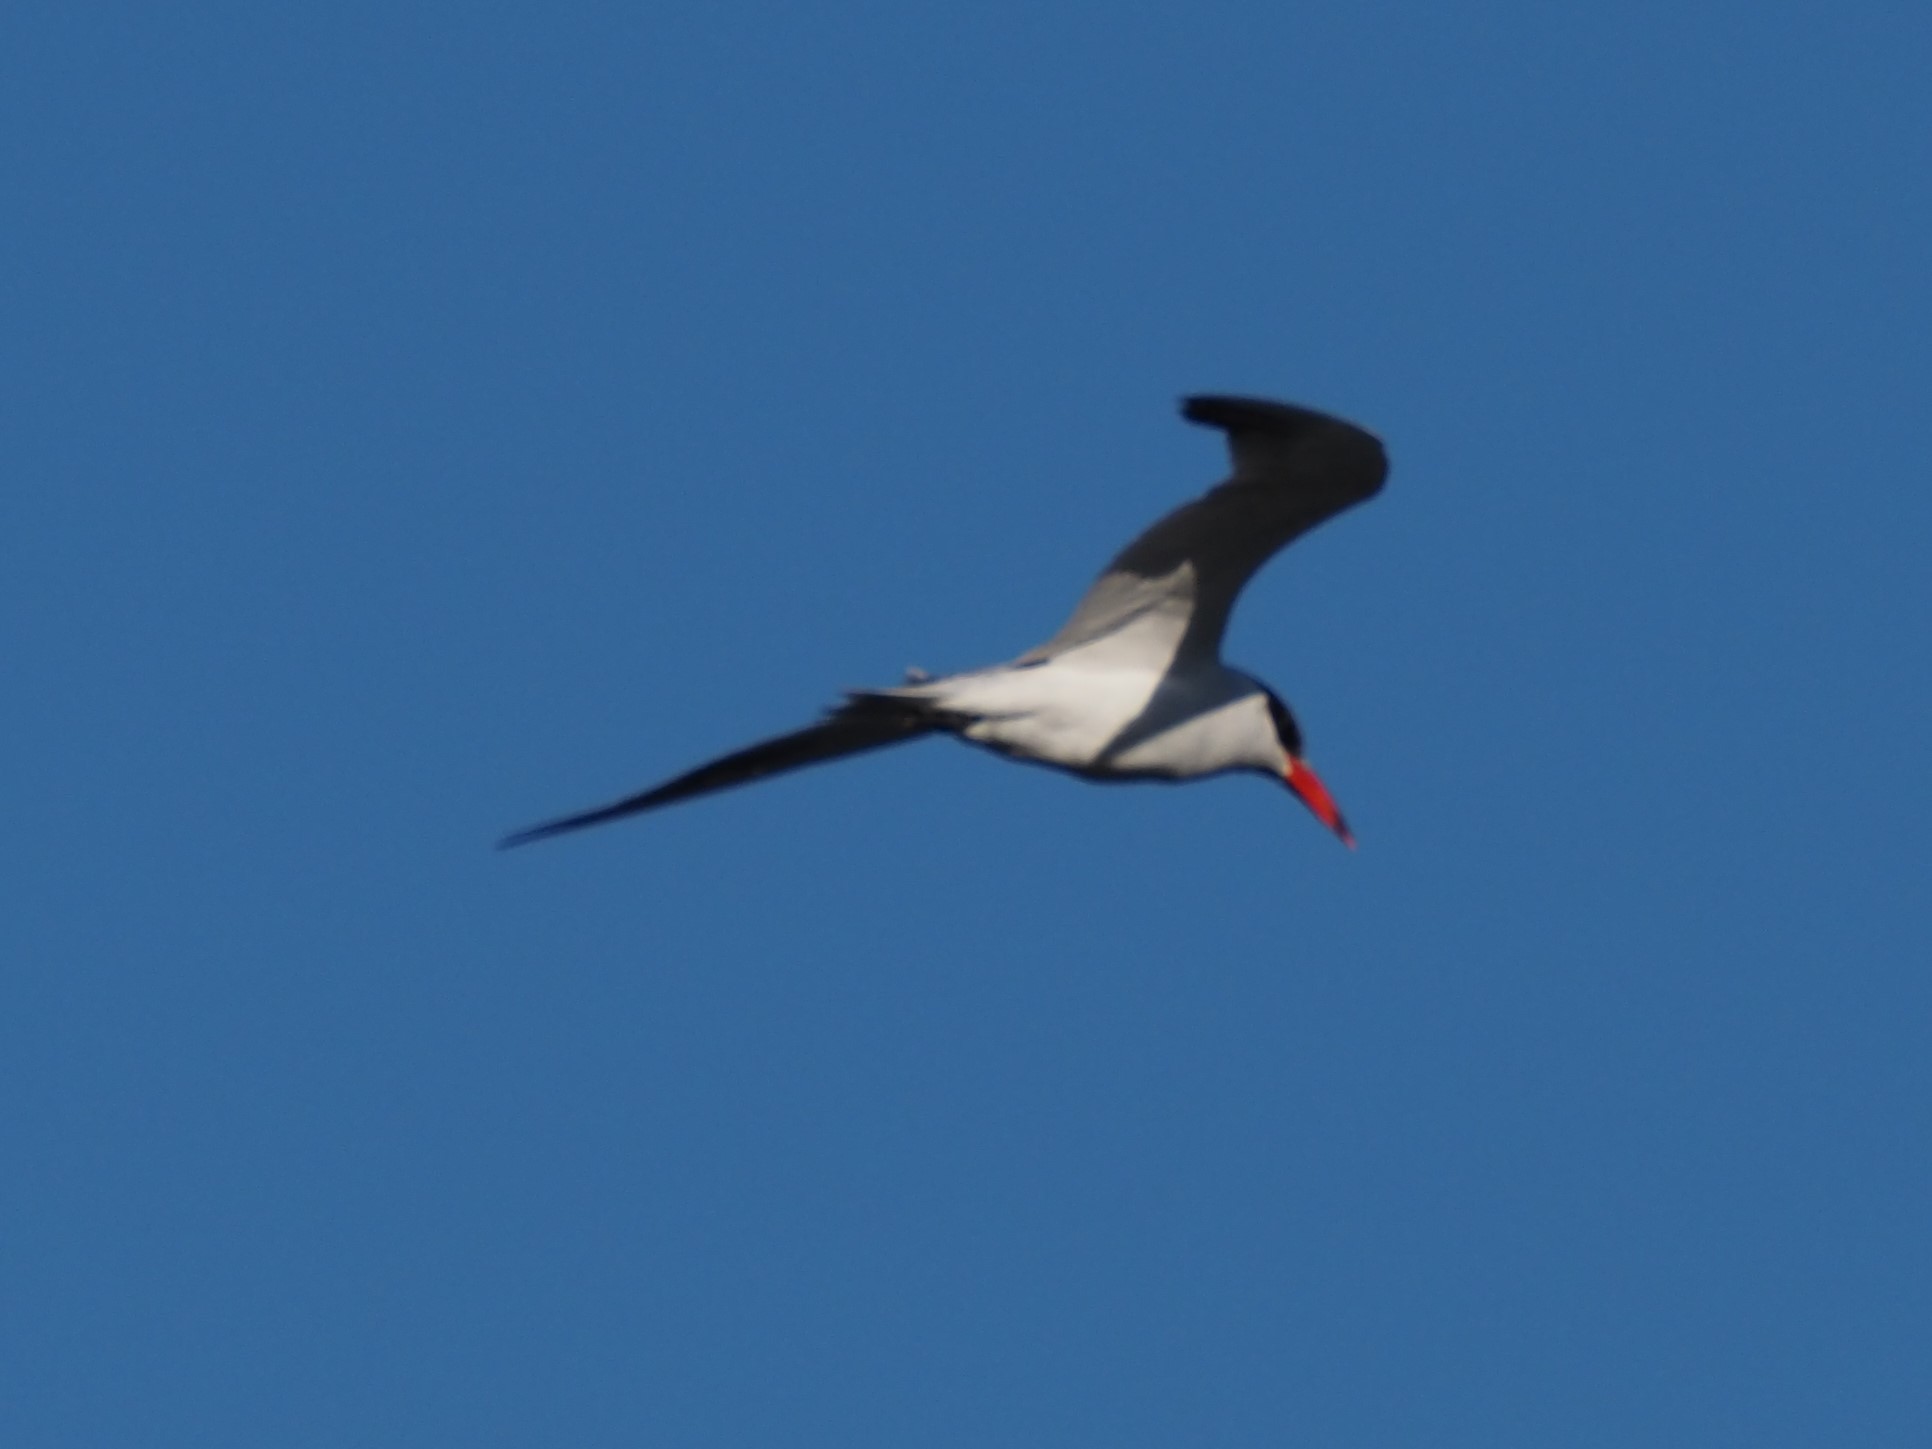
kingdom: Animalia
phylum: Chordata
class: Aves
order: Charadriiformes
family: Laridae
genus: Hydroprogne
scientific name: Hydroprogne caspia
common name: Caspian tern
